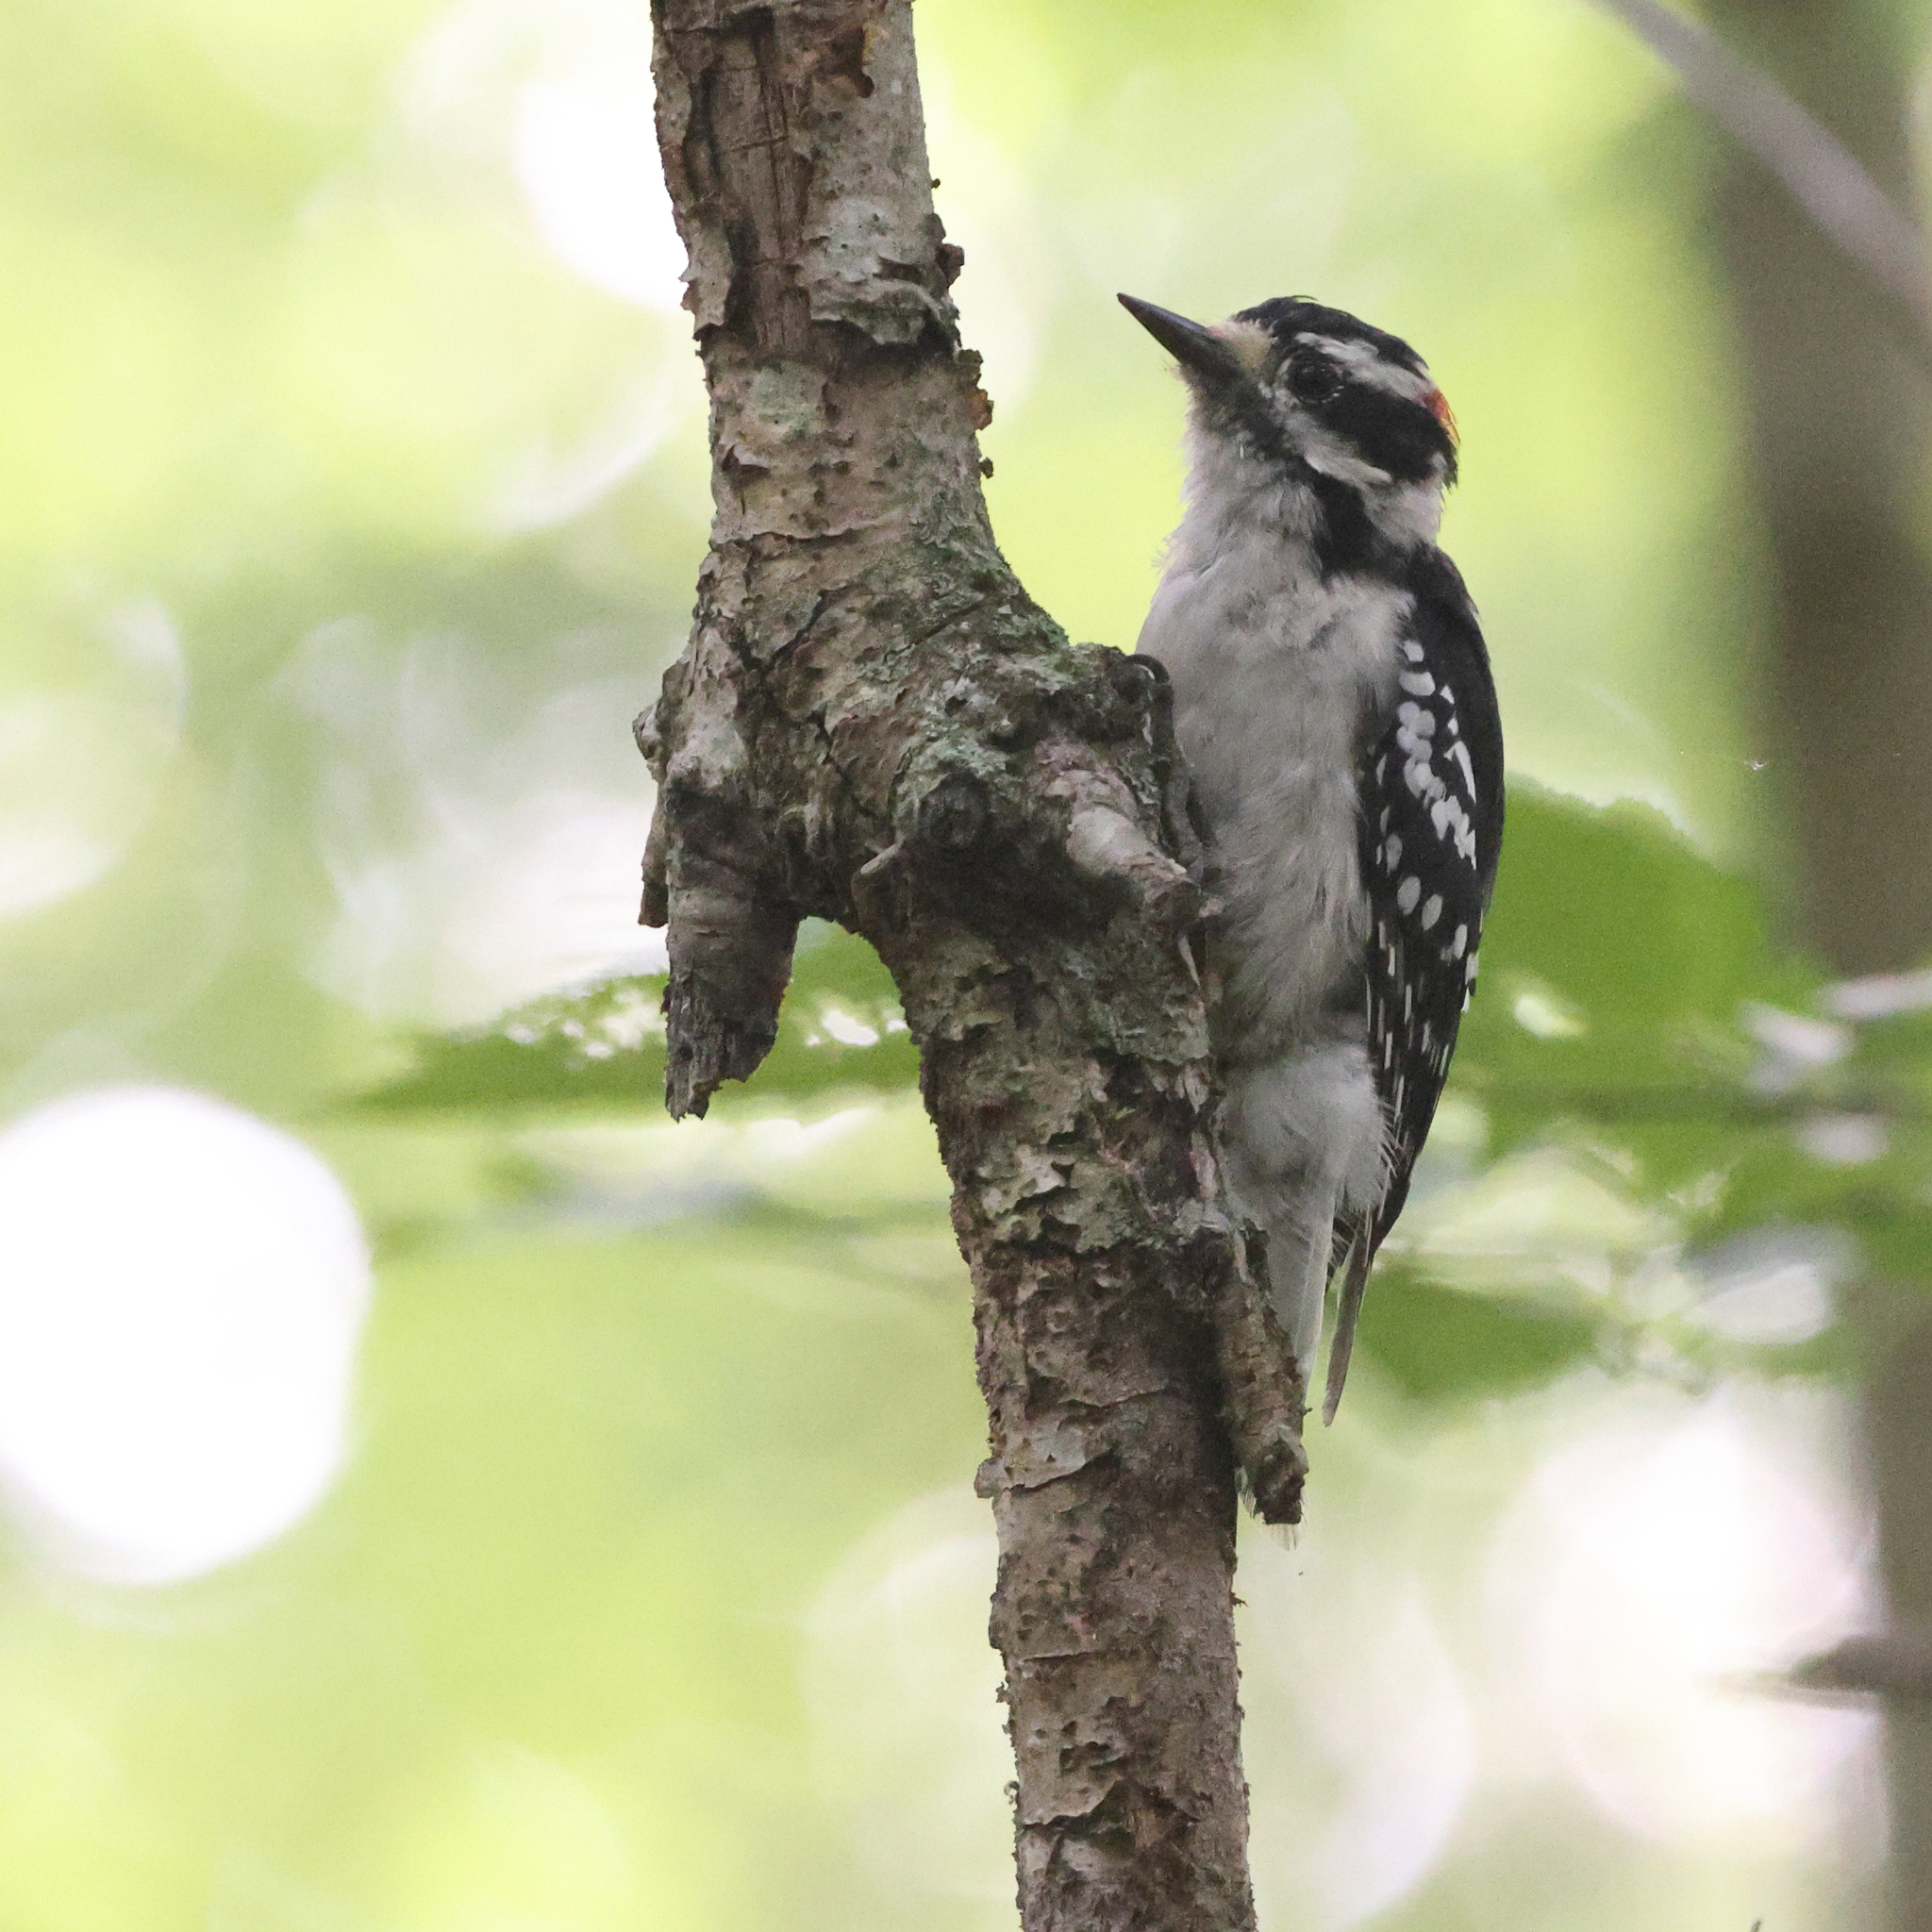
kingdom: Animalia
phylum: Chordata
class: Aves
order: Piciformes
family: Picidae
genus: Dryobates
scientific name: Dryobates pubescens
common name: Downy woodpecker
